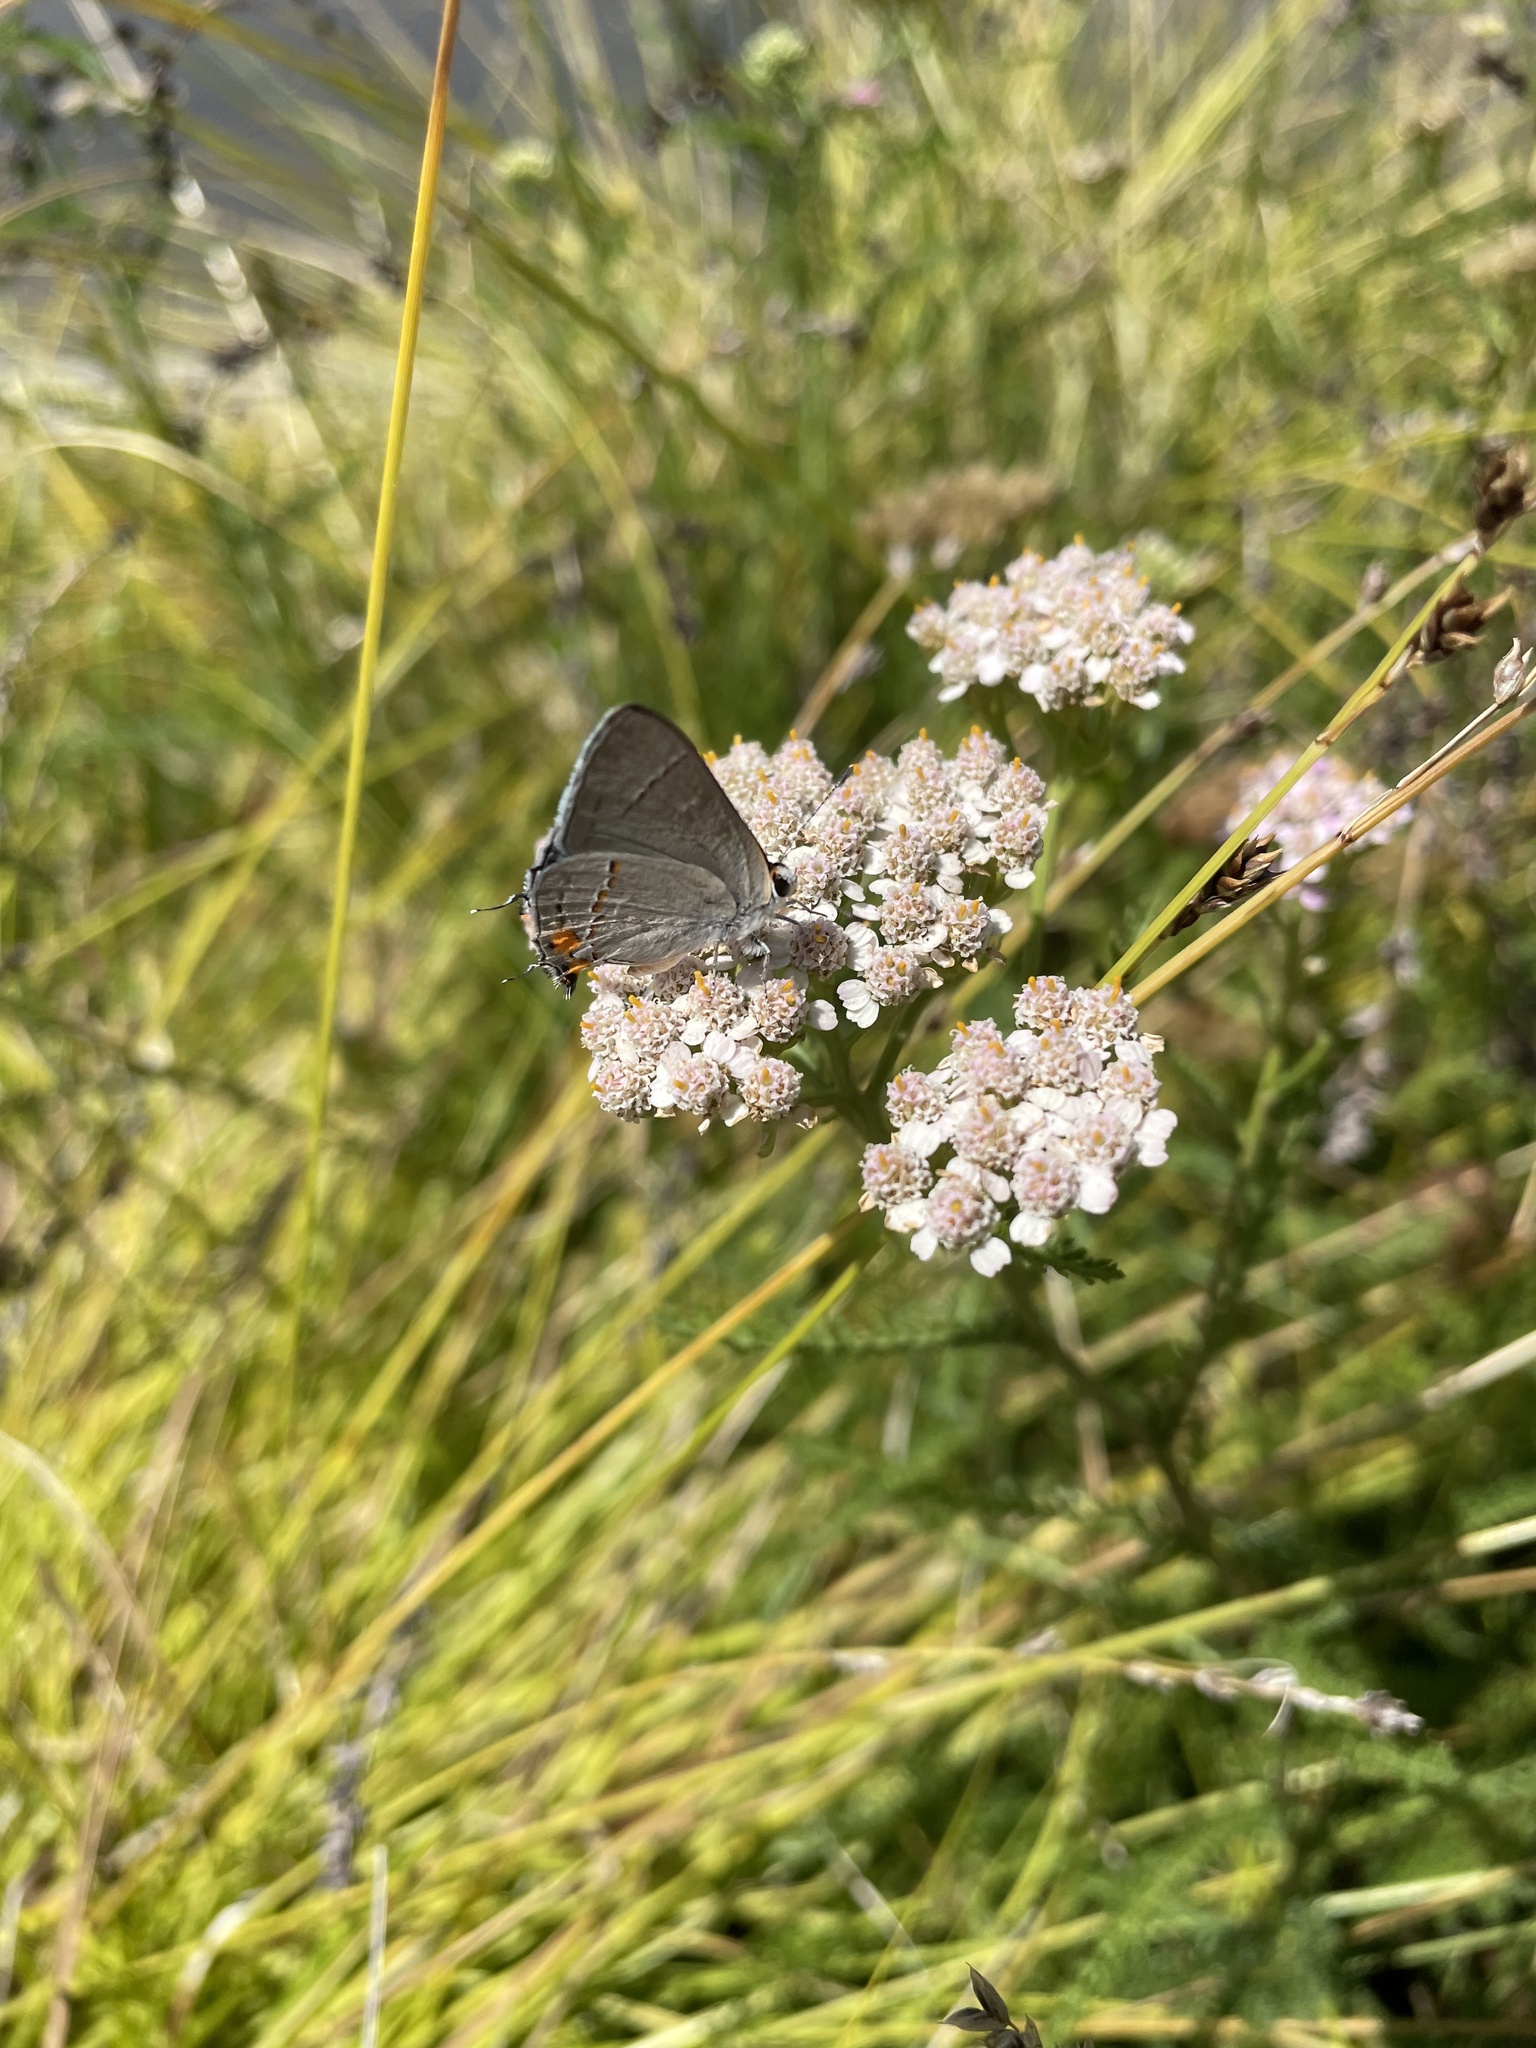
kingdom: Animalia
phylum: Arthropoda
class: Insecta
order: Lepidoptera
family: Lycaenidae
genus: Strymon
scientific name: Strymon melinus
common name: Gray hairstreak
